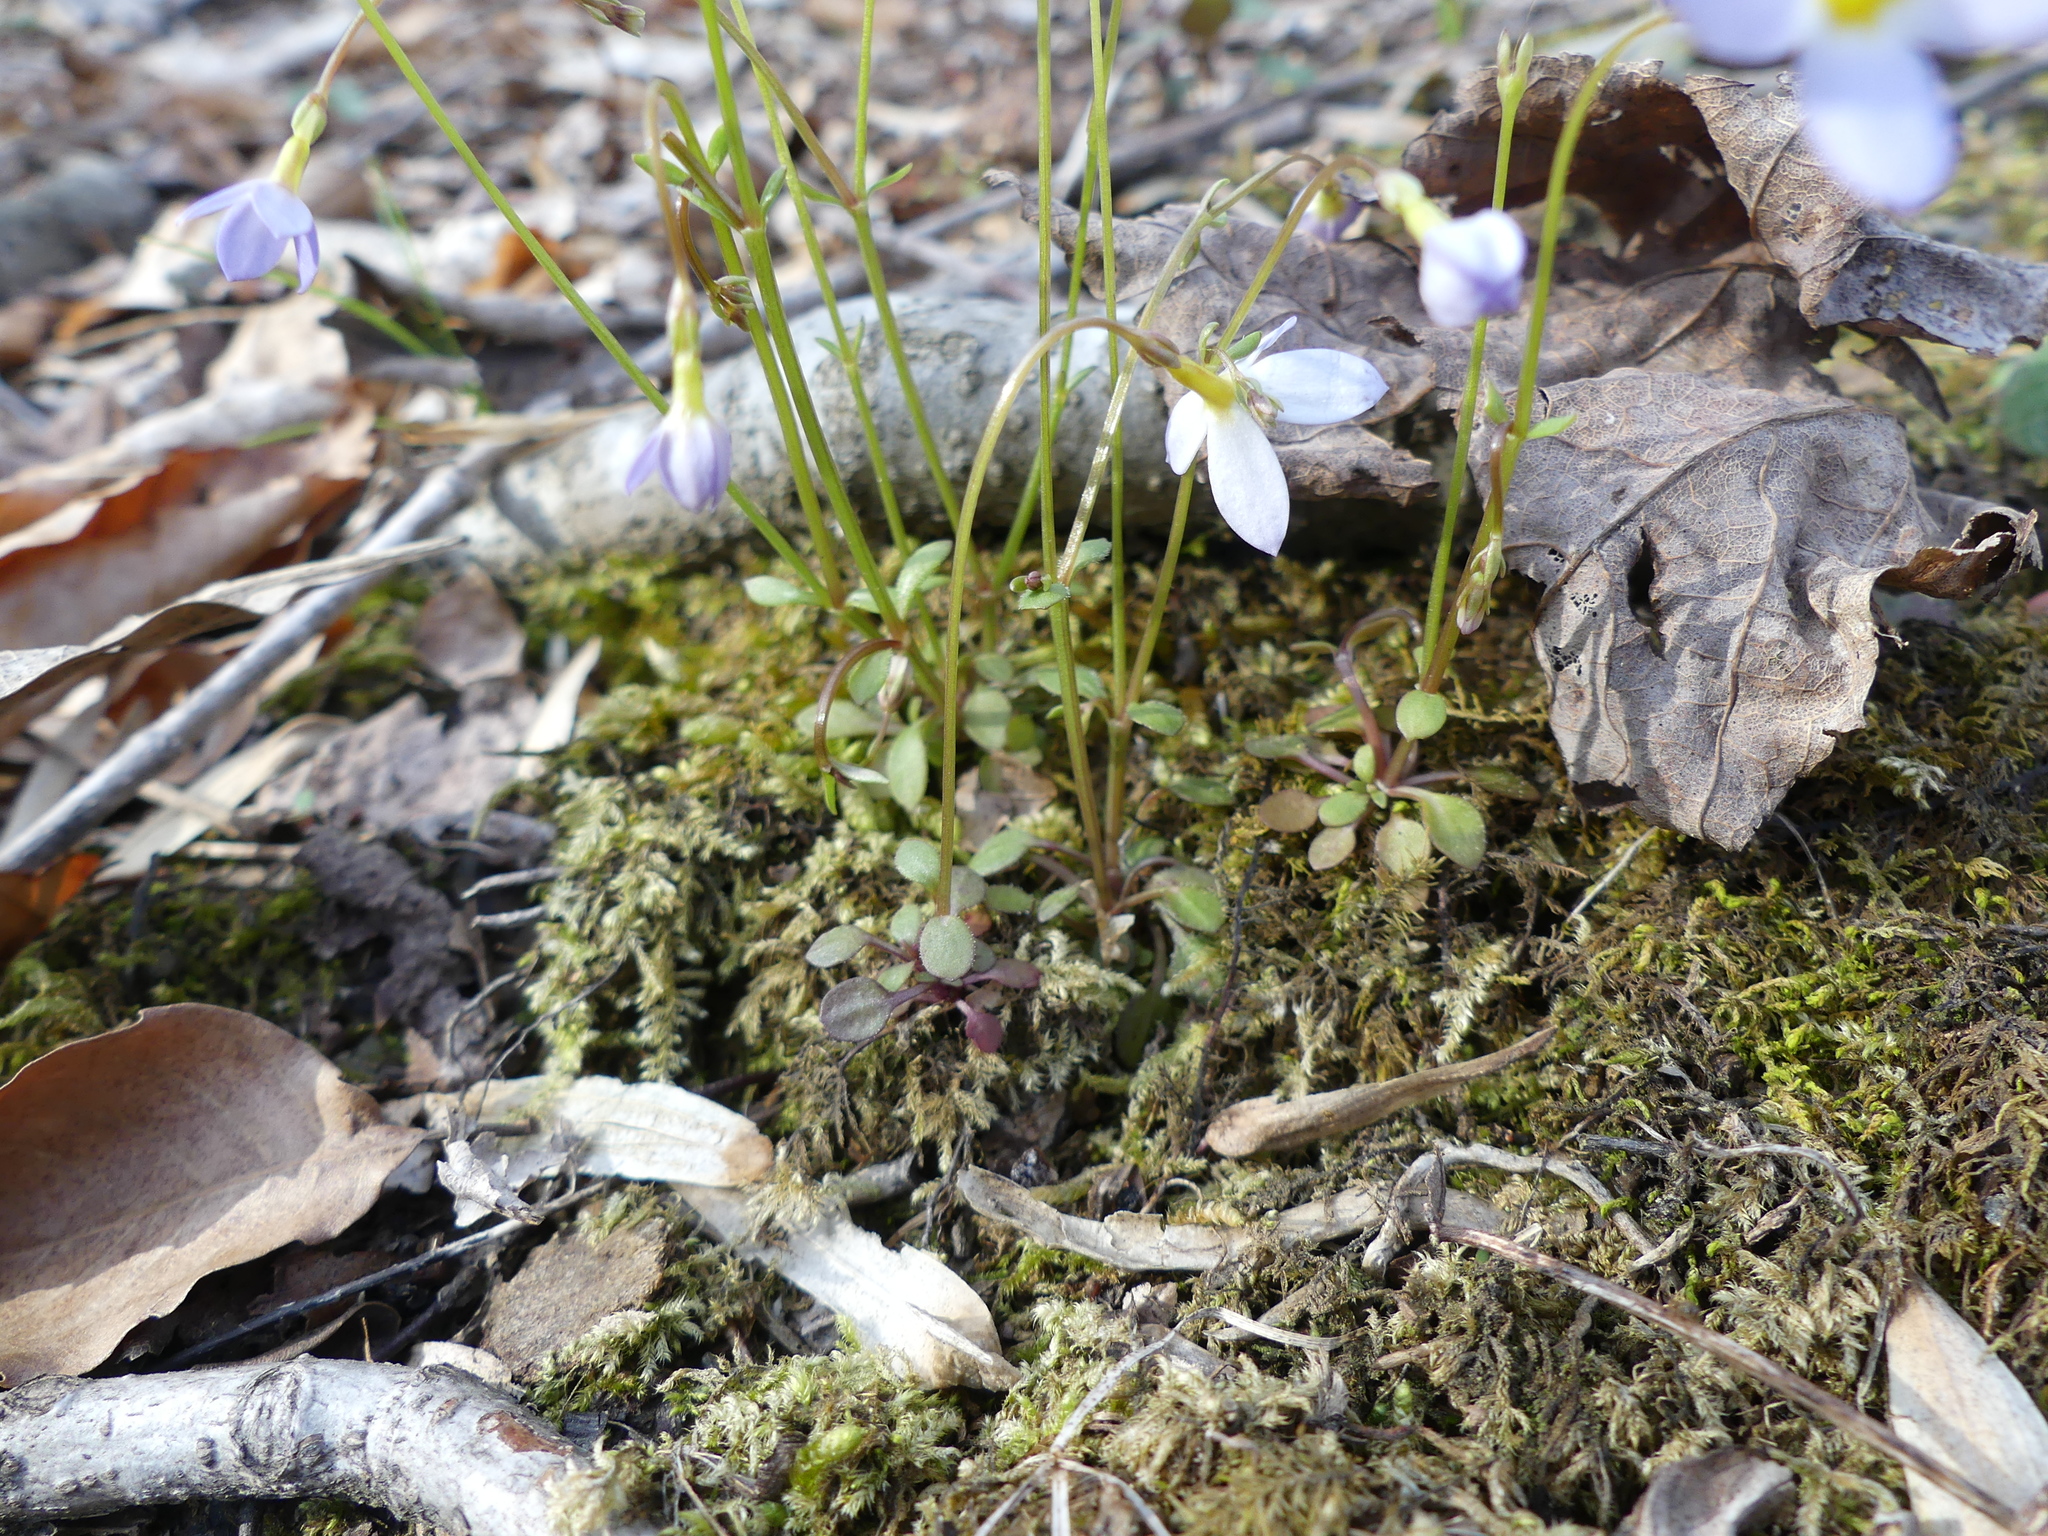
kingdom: Plantae
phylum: Tracheophyta
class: Magnoliopsida
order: Gentianales
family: Rubiaceae
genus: Houstonia
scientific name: Houstonia caerulea
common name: Bluets
